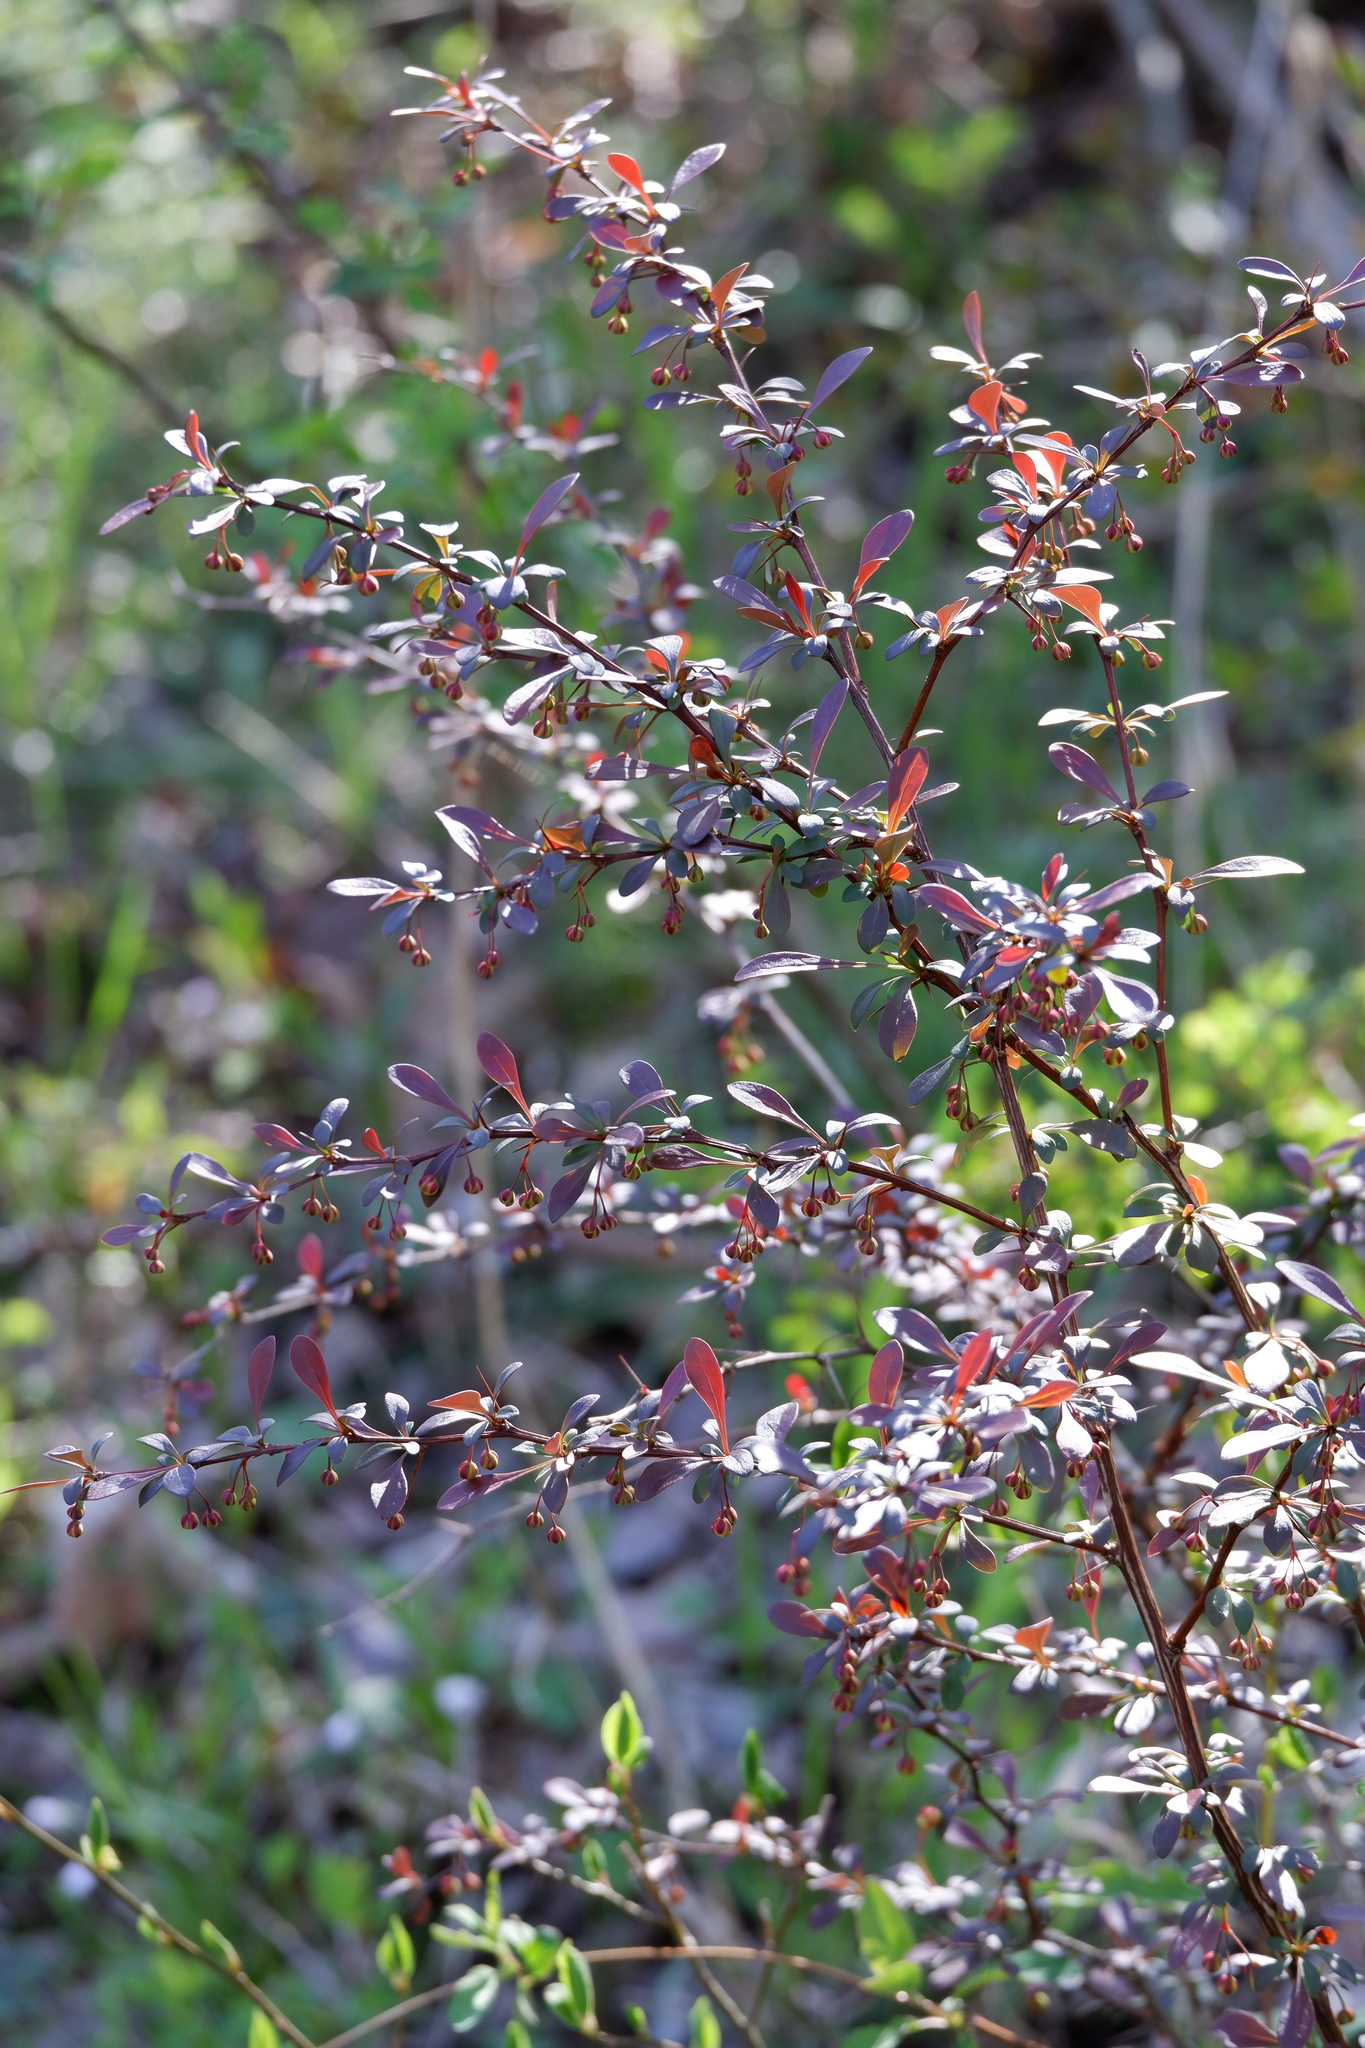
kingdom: Plantae
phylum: Tracheophyta
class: Magnoliopsida
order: Ranunculales
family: Berberidaceae
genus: Berberis
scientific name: Berberis thunbergii
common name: Japanese barberry
